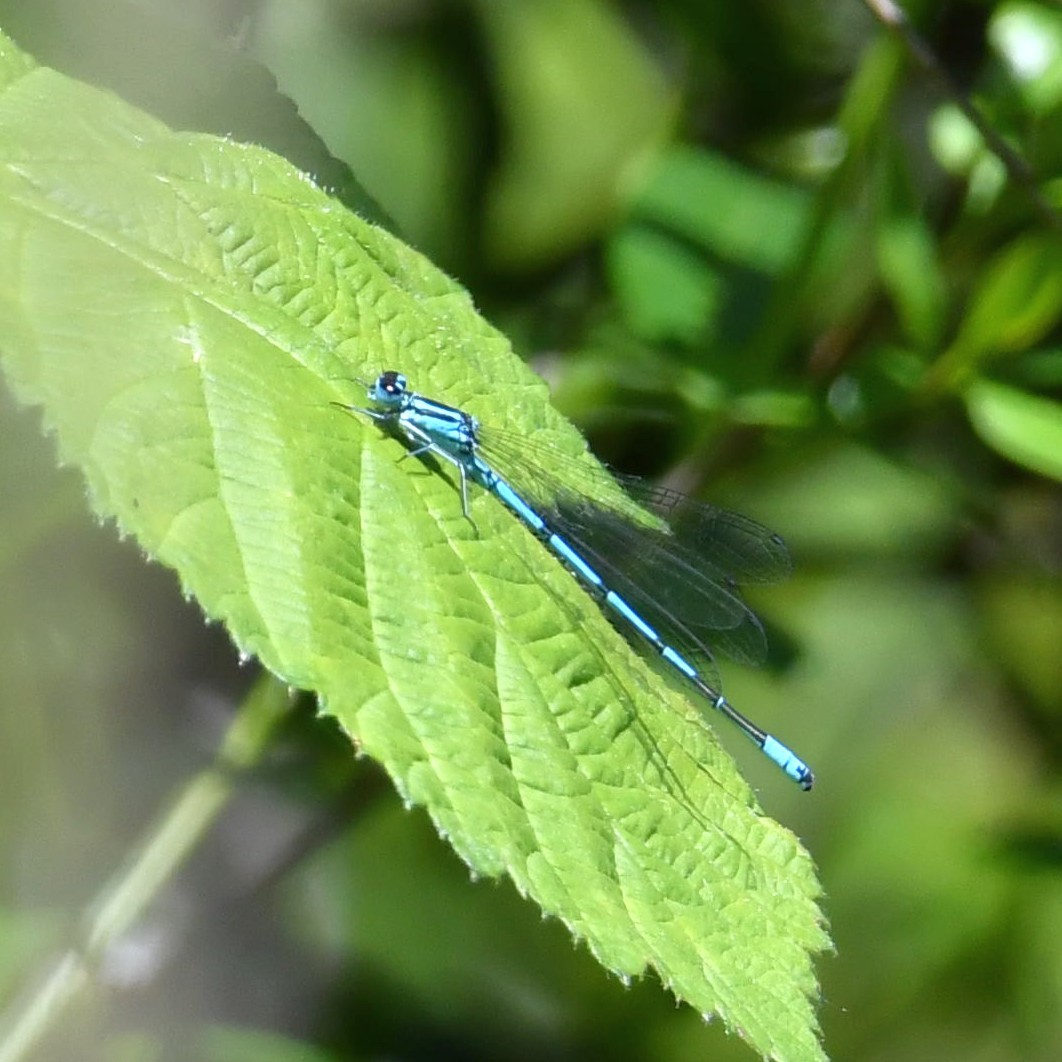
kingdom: Animalia
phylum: Arthropoda
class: Insecta
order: Odonata
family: Coenagrionidae
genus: Coenagrion
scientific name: Coenagrion puella
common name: Azure damselfly
